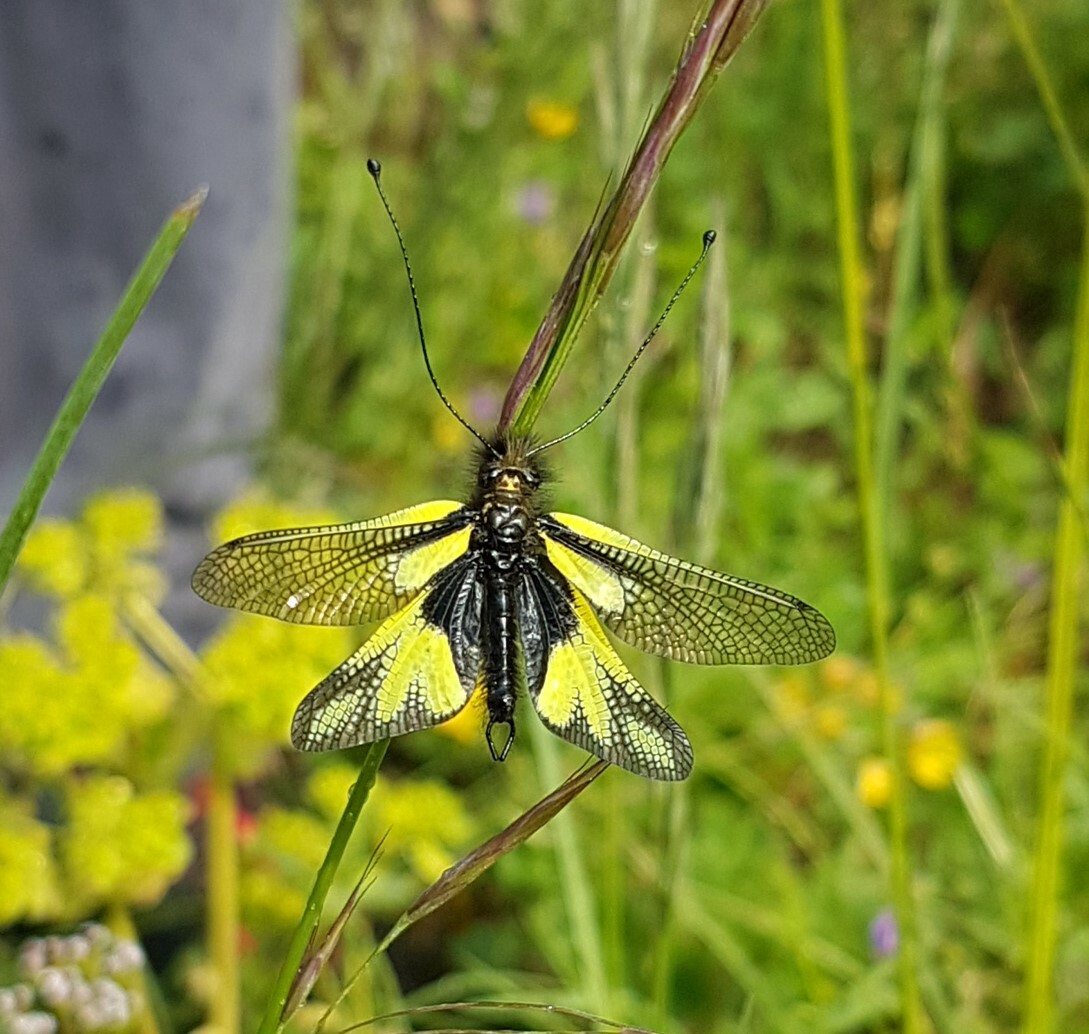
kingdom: Animalia
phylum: Arthropoda
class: Insecta
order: Neuroptera
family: Ascalaphidae
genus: Libelloides
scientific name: Libelloides coccajus
